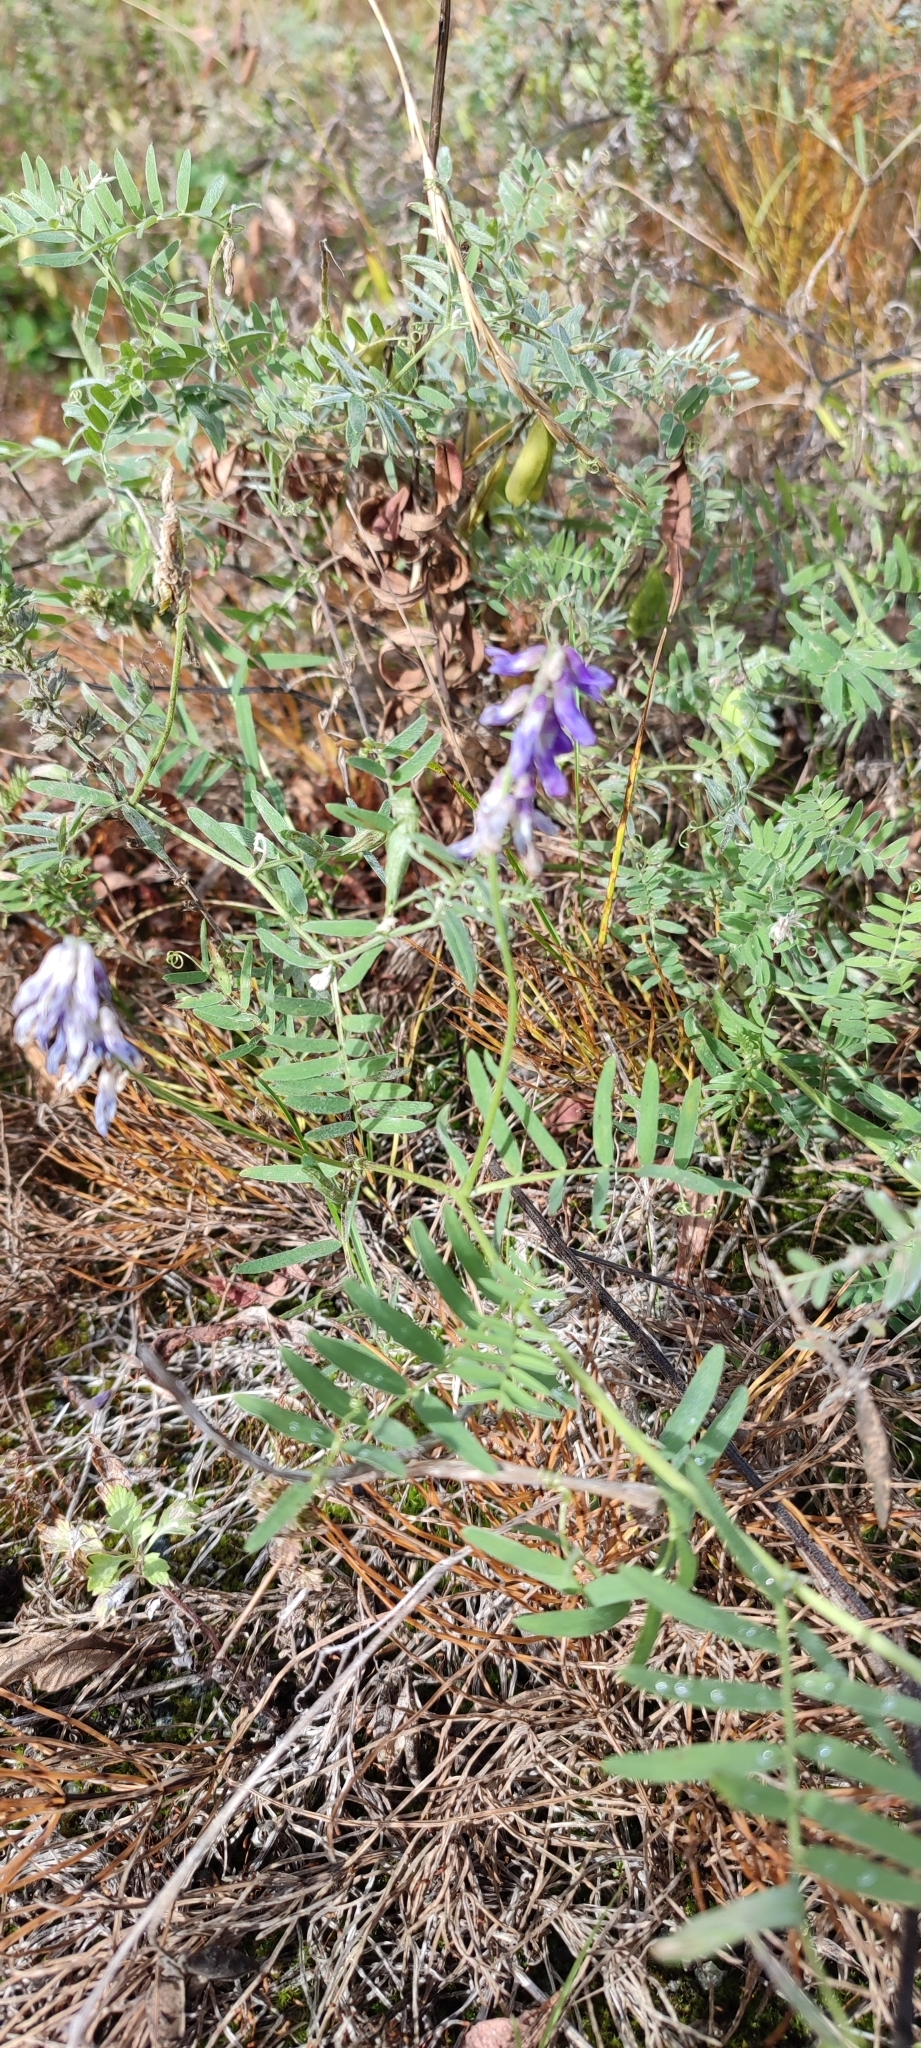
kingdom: Plantae
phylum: Tracheophyta
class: Magnoliopsida
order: Fabales
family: Fabaceae
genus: Vicia
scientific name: Vicia cracca
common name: Bird vetch
